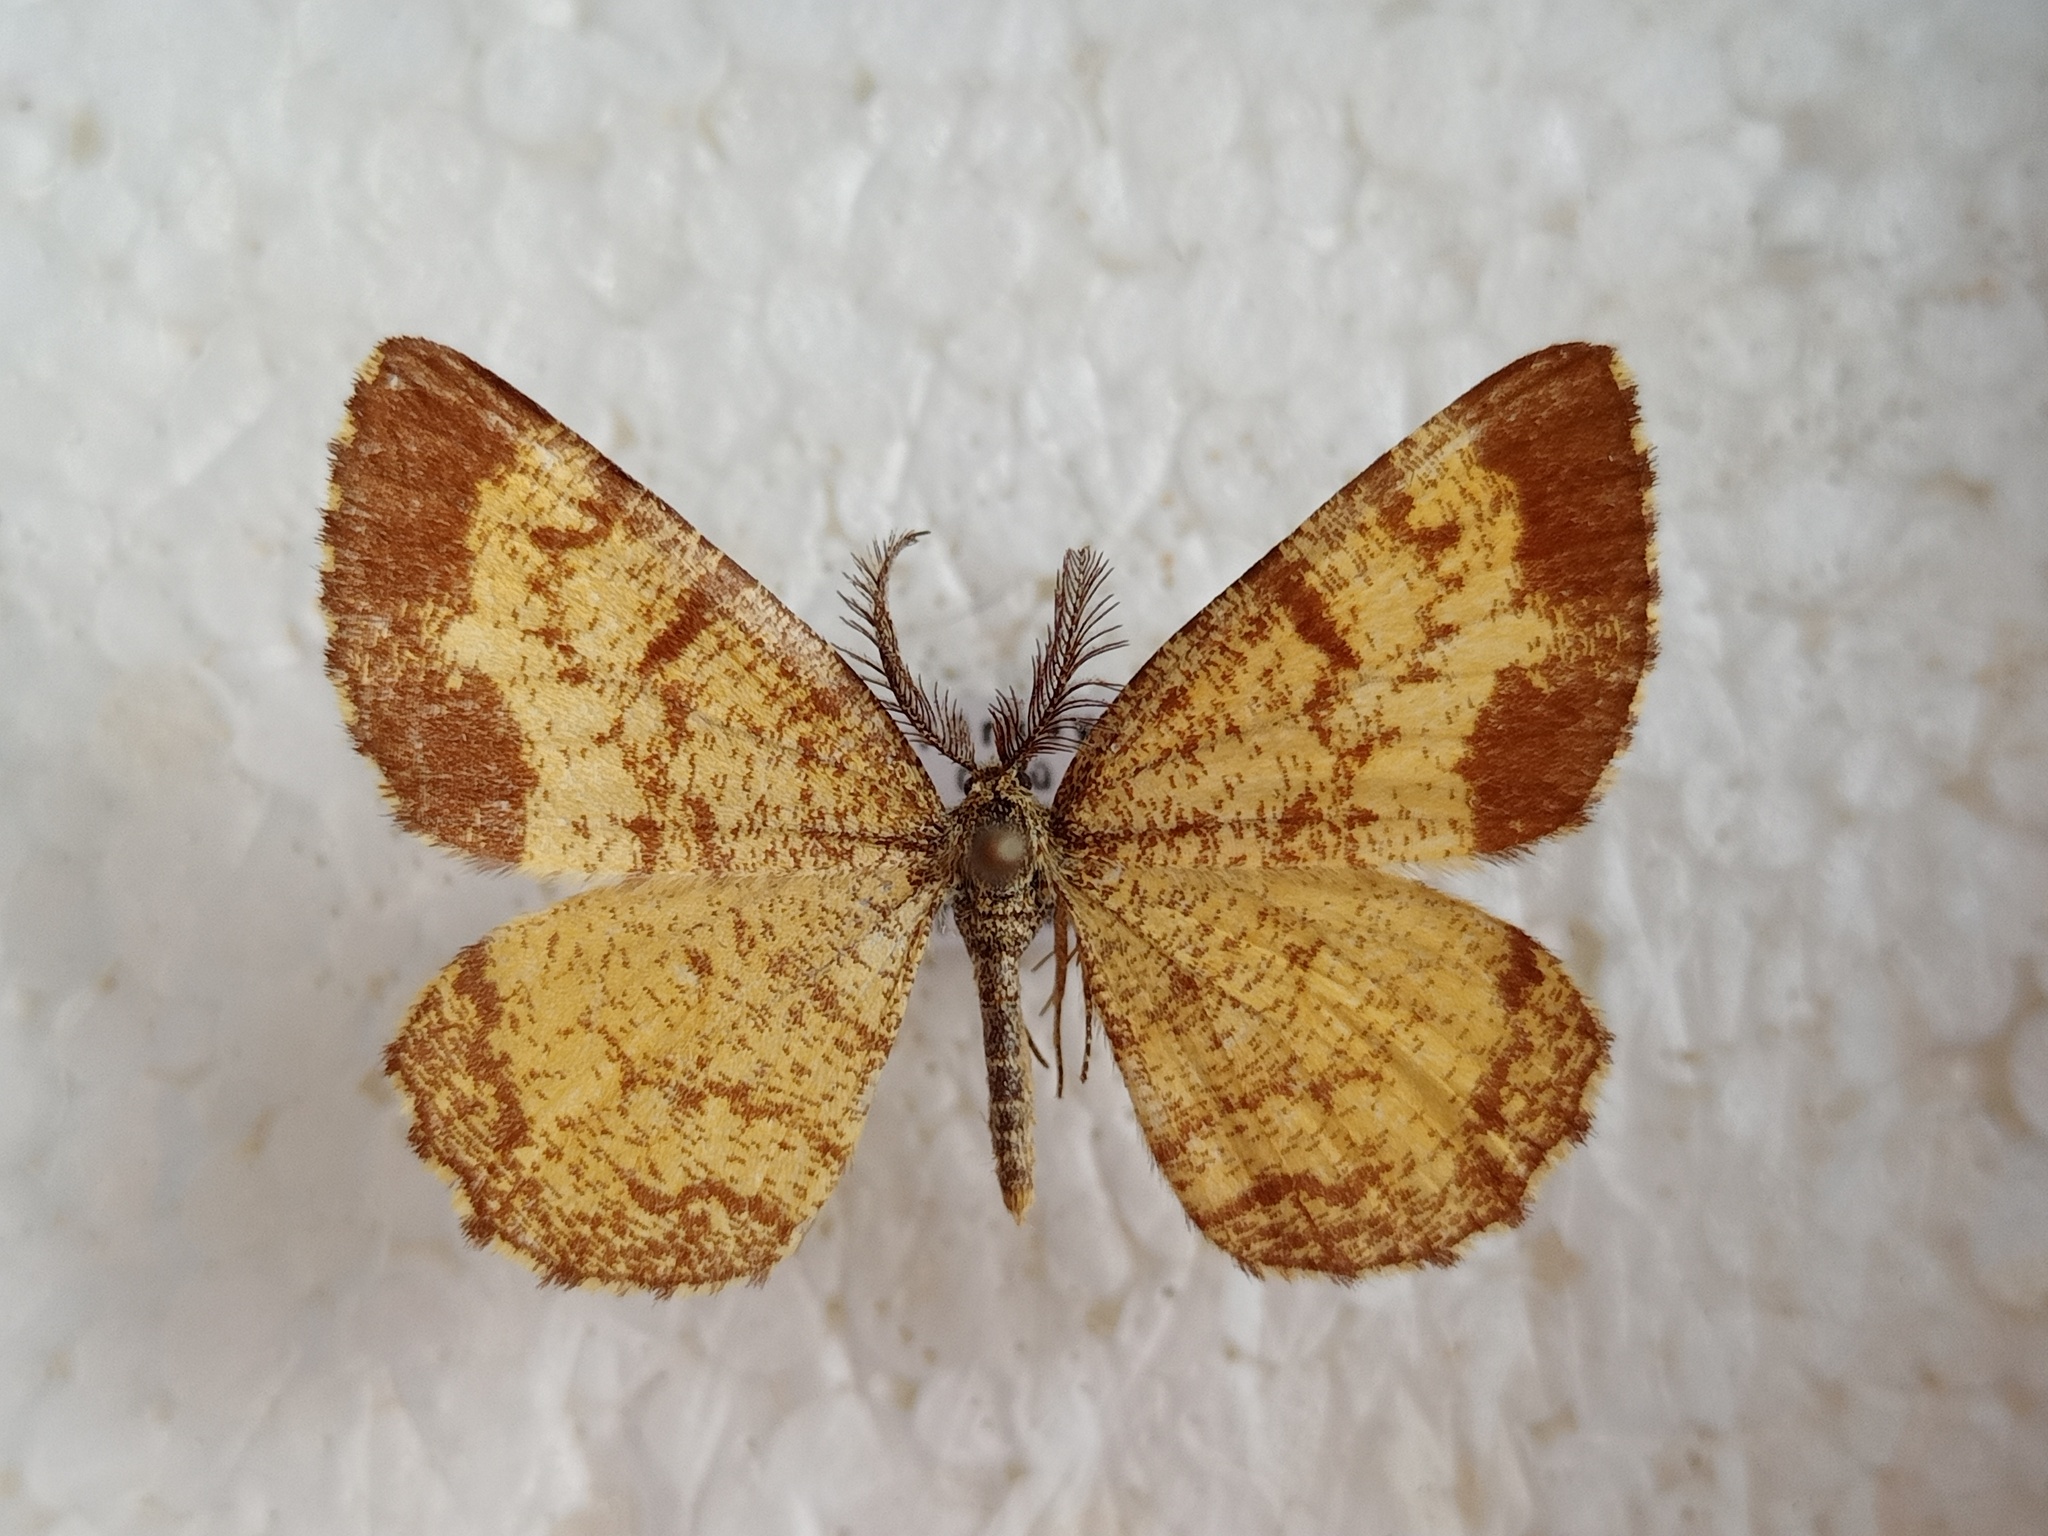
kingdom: Animalia
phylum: Arthropoda
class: Insecta
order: Lepidoptera
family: Geometridae
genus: Ematurga
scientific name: Ematurga atomaria
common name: Common heath
